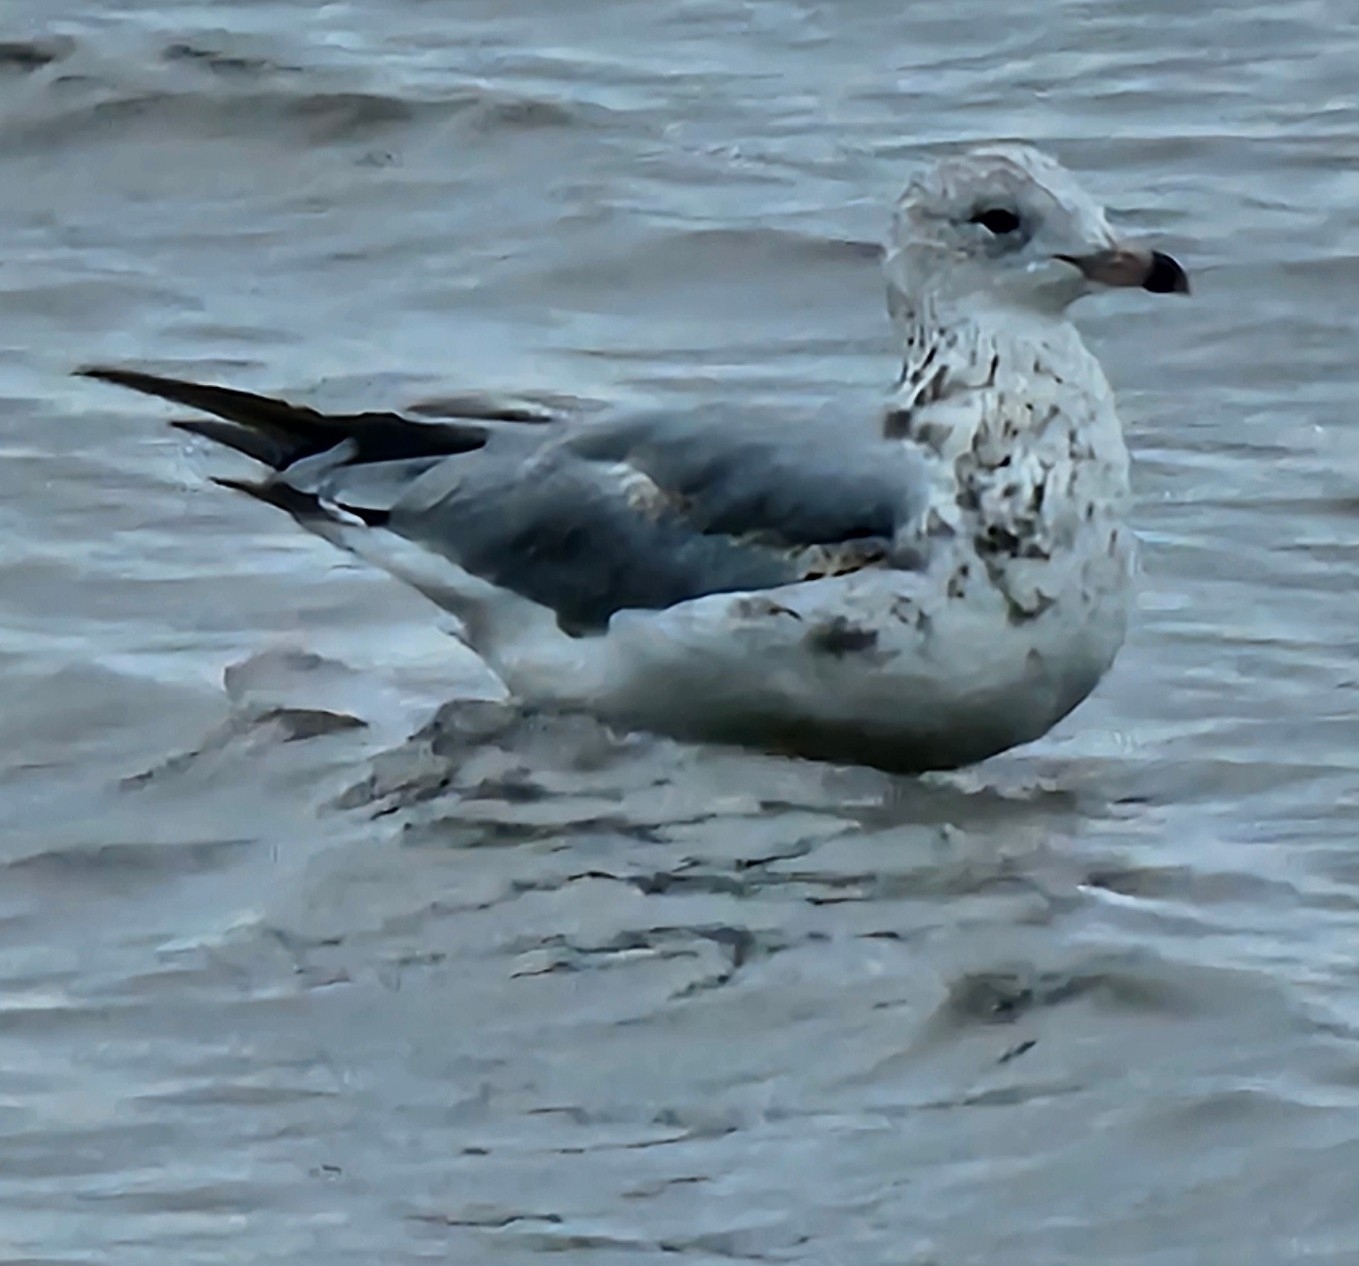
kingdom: Animalia
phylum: Chordata
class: Aves
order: Charadriiformes
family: Laridae
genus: Larus
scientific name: Larus delawarensis
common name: Ring-billed gull
